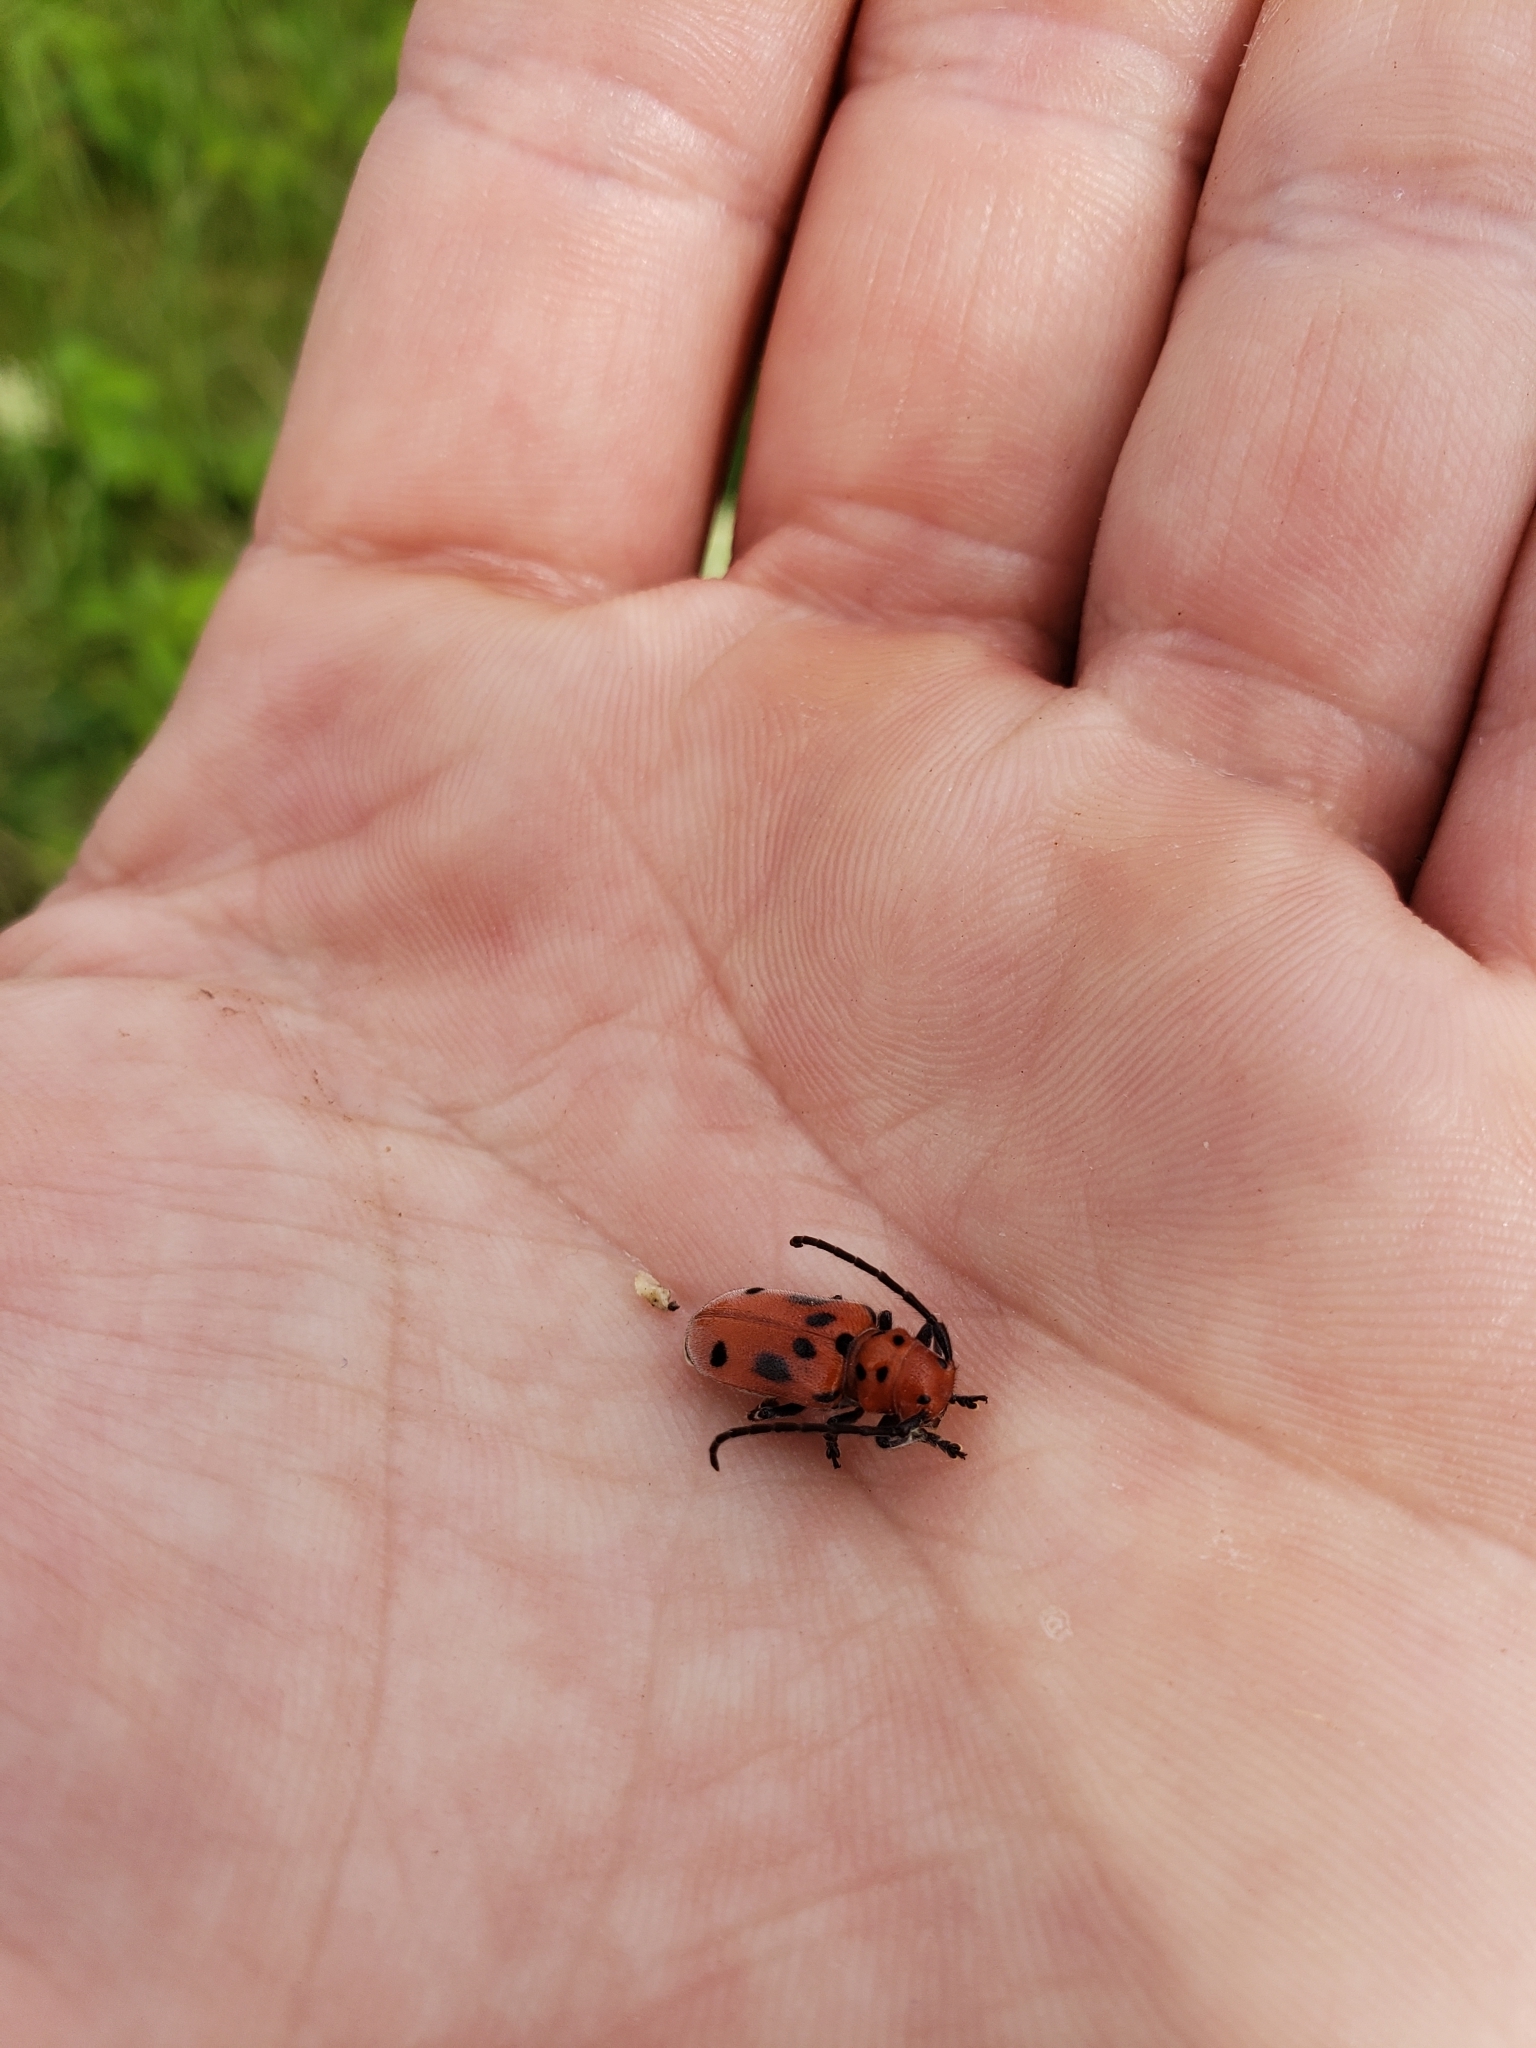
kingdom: Animalia
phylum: Arthropoda
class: Insecta
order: Coleoptera
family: Cerambycidae
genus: Tetraopes
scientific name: Tetraopes tetrophthalmus
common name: Red milkweed beetle
